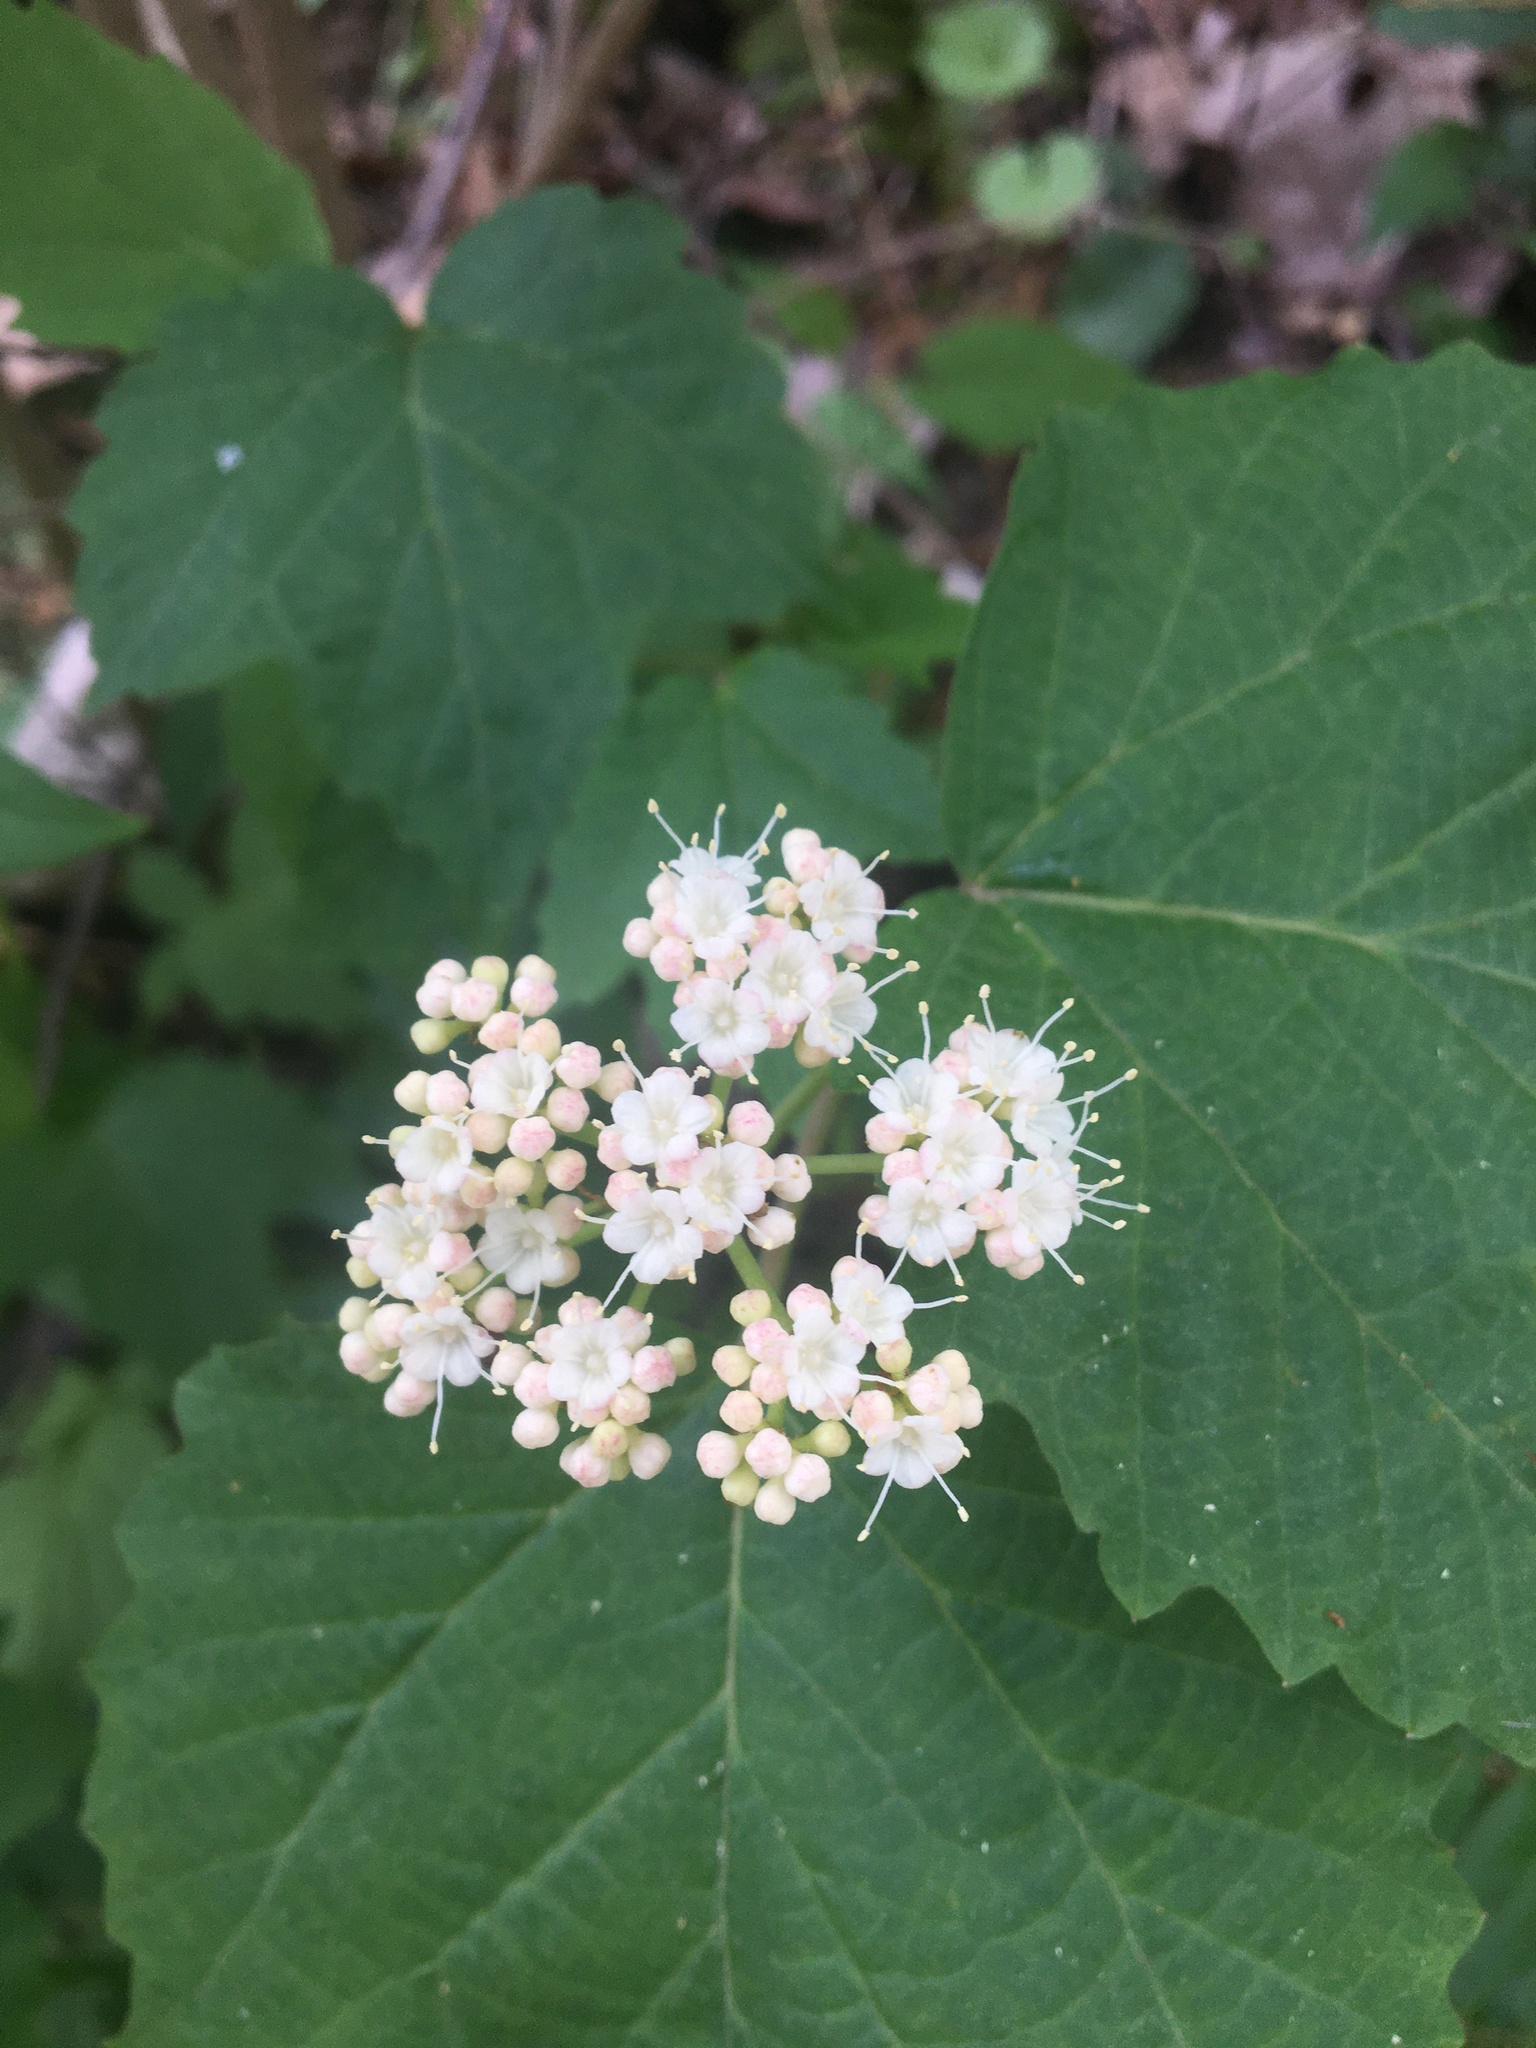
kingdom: Plantae
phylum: Tracheophyta
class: Magnoliopsida
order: Dipsacales
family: Viburnaceae
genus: Viburnum
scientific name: Viburnum acerifolium
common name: Dockmackie
